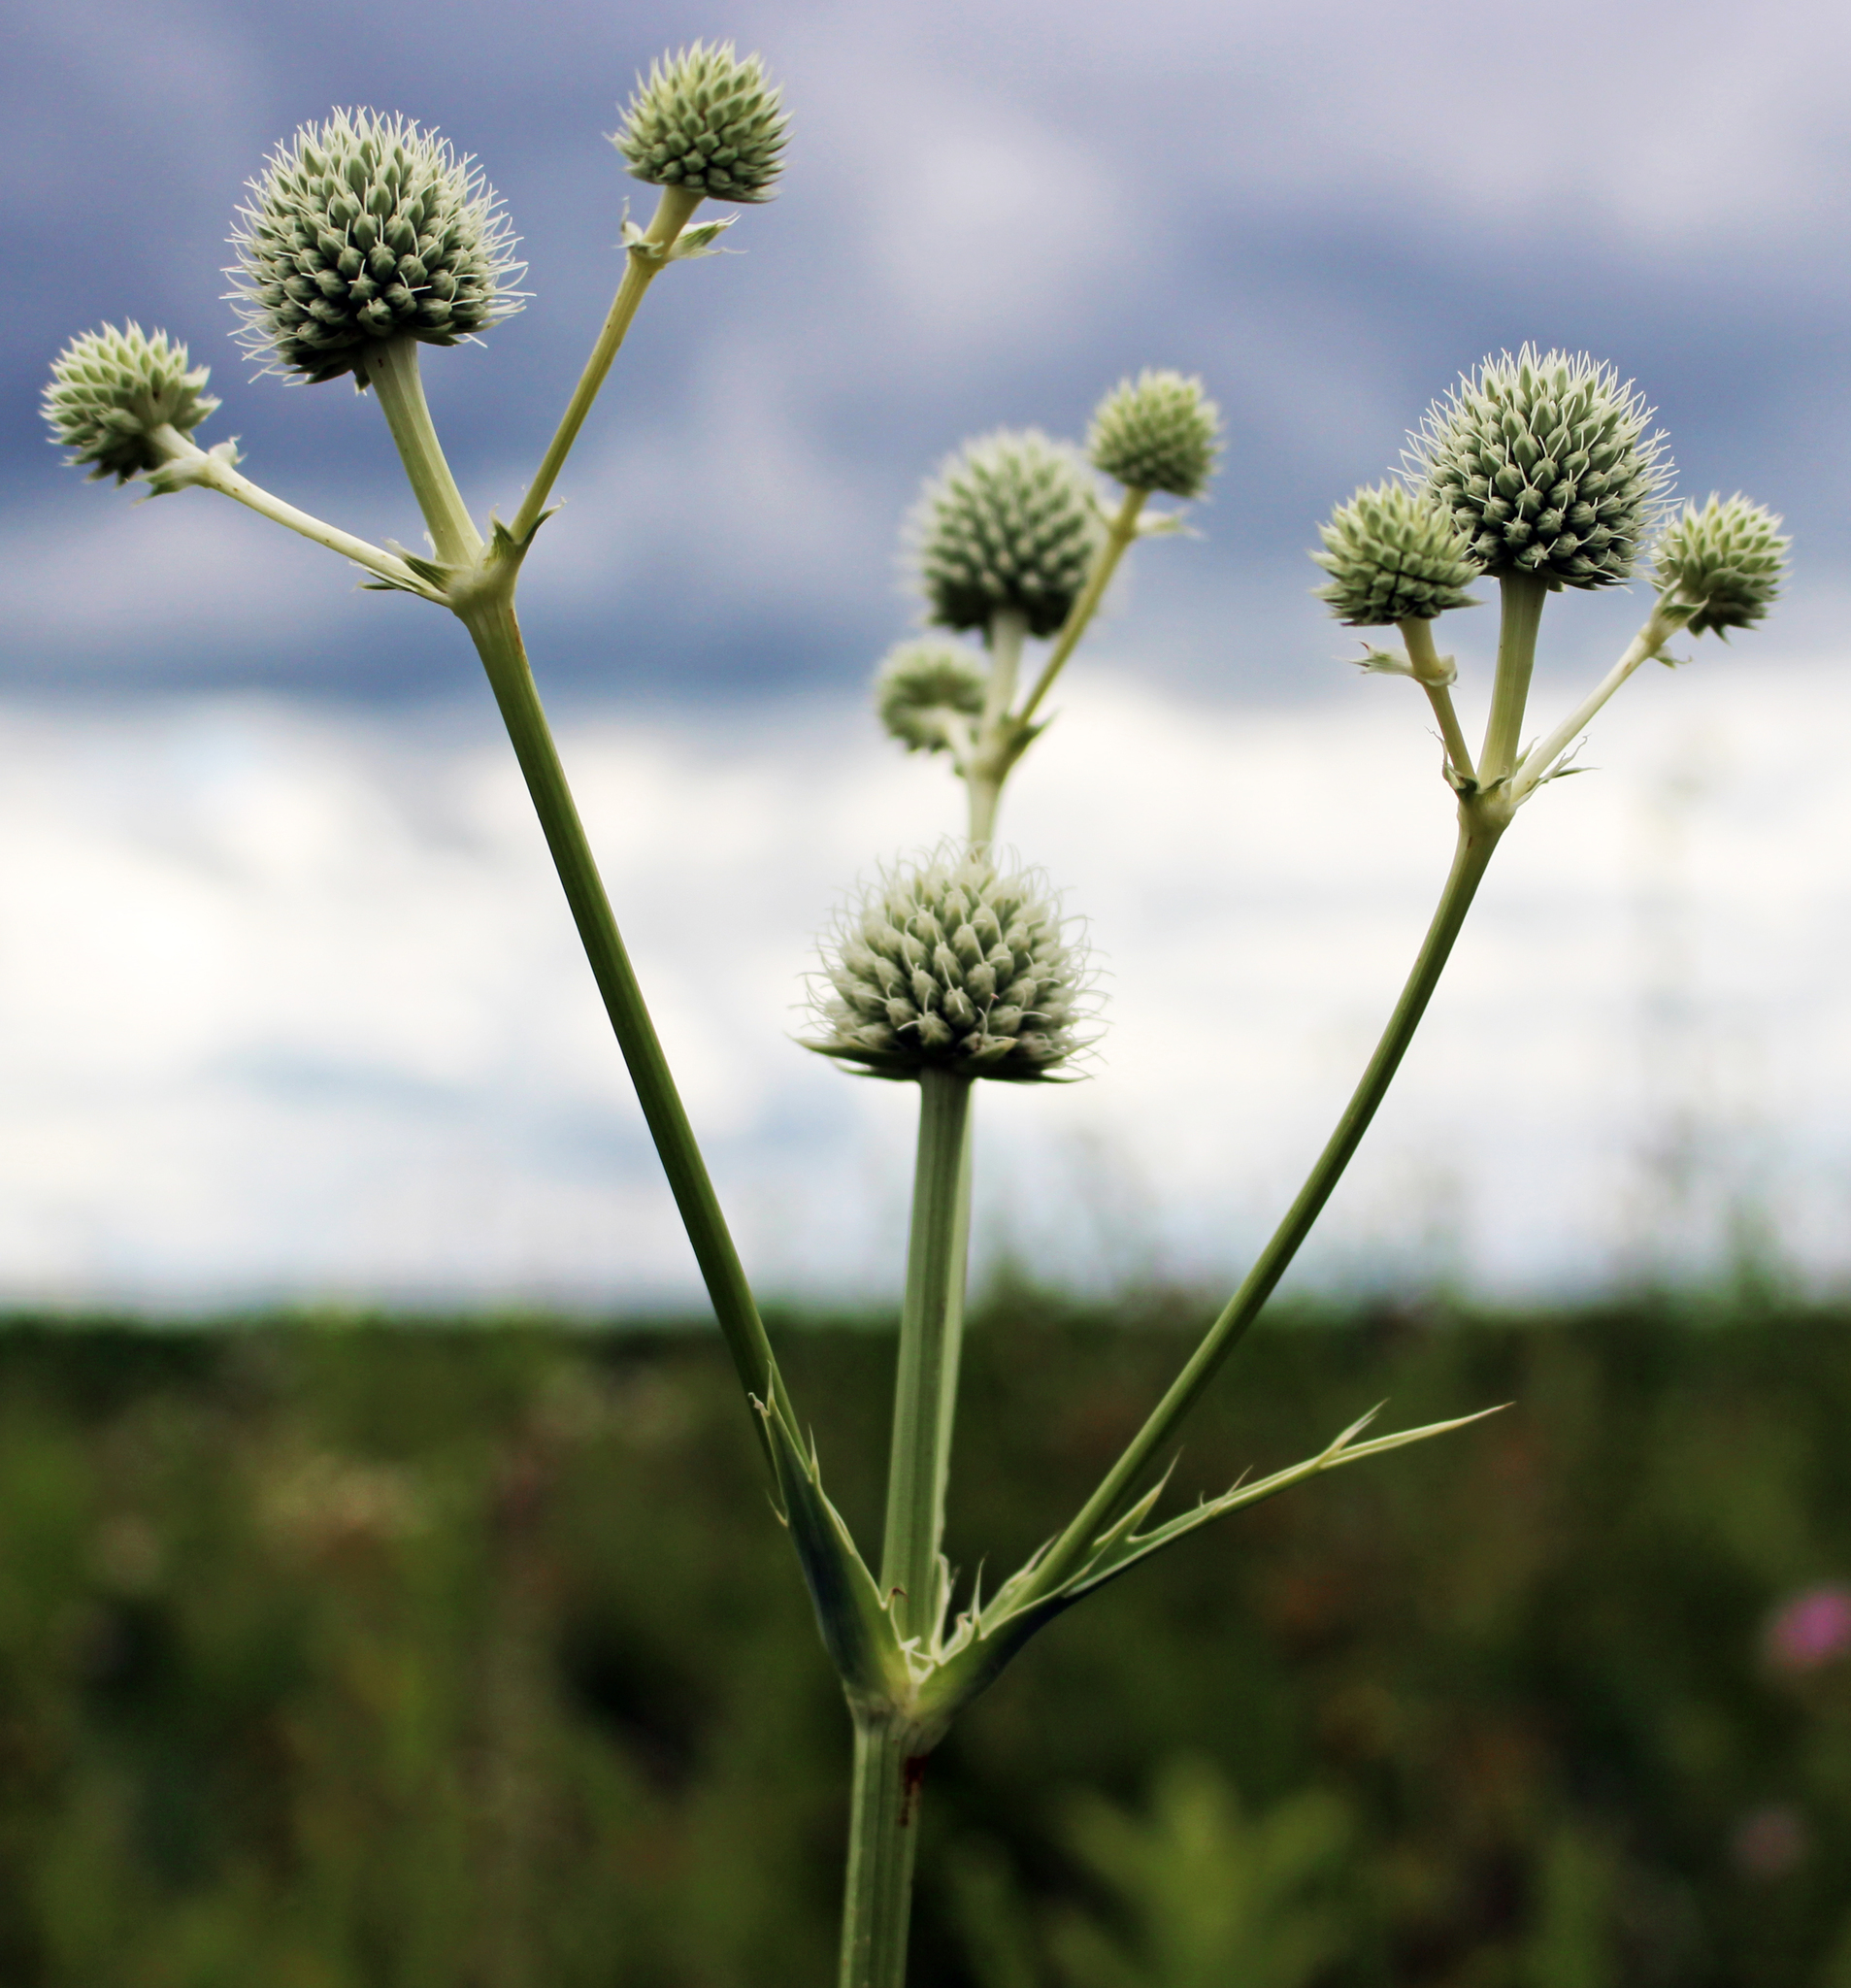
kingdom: Plantae
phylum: Tracheophyta
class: Magnoliopsida
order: Apiales
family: Apiaceae
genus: Eryngium
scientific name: Eryngium yuccifolium
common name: Button eryngo
